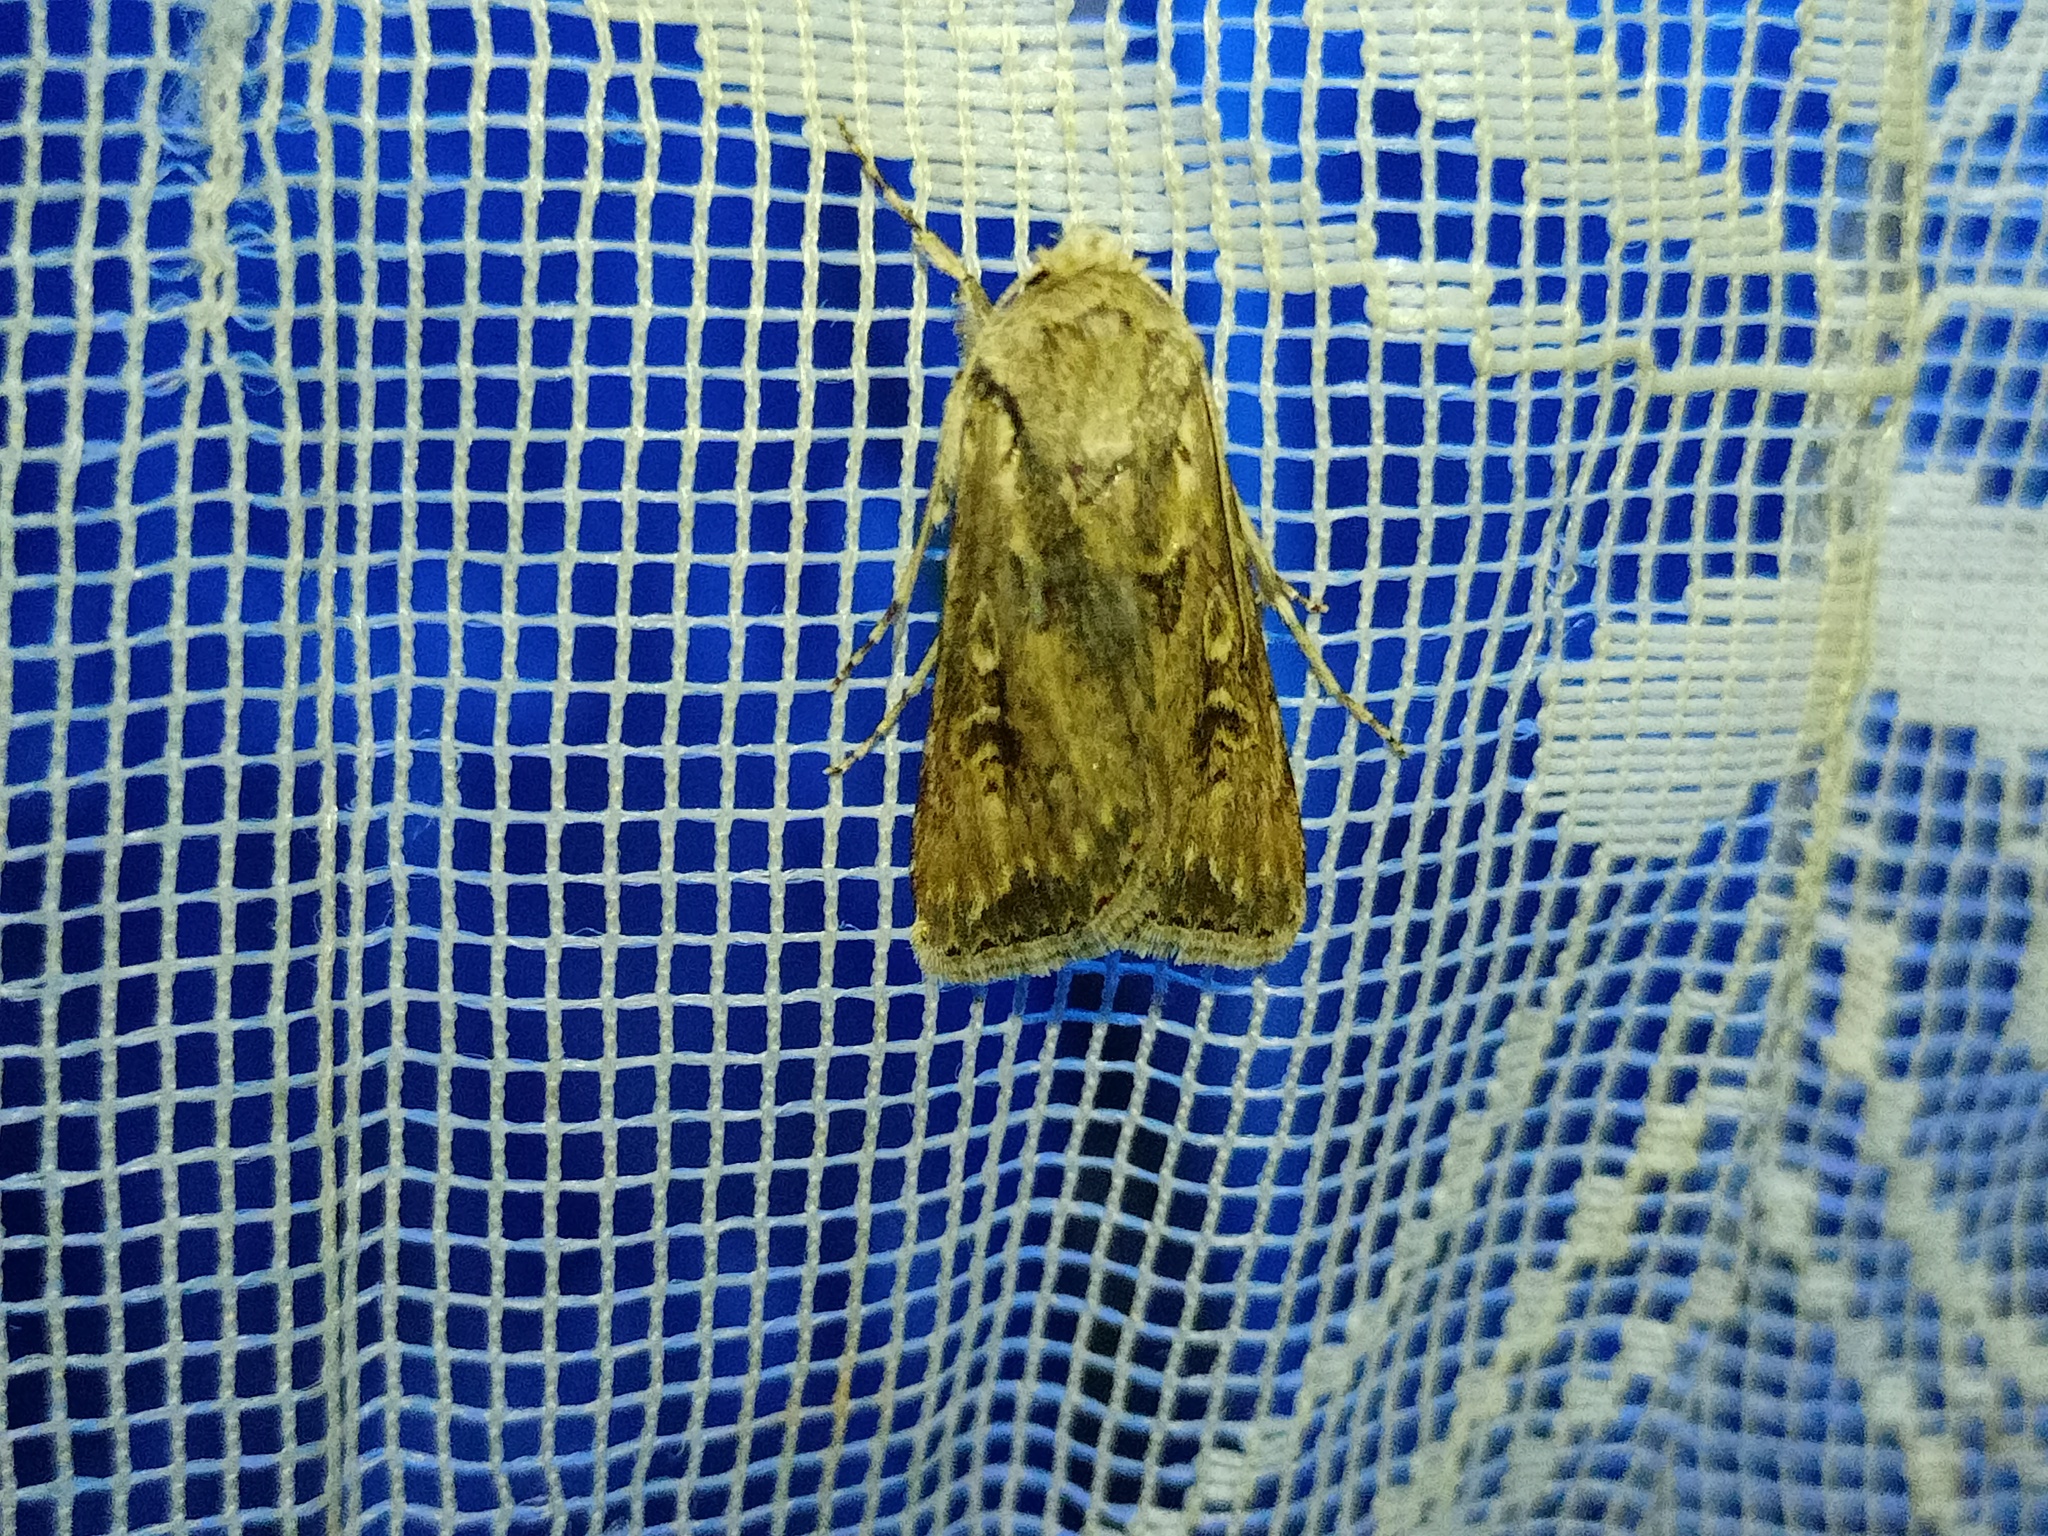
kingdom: Animalia
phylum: Arthropoda
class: Insecta
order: Lepidoptera
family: Noctuidae
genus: Agrotis
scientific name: Agrotis lanzarotensis
